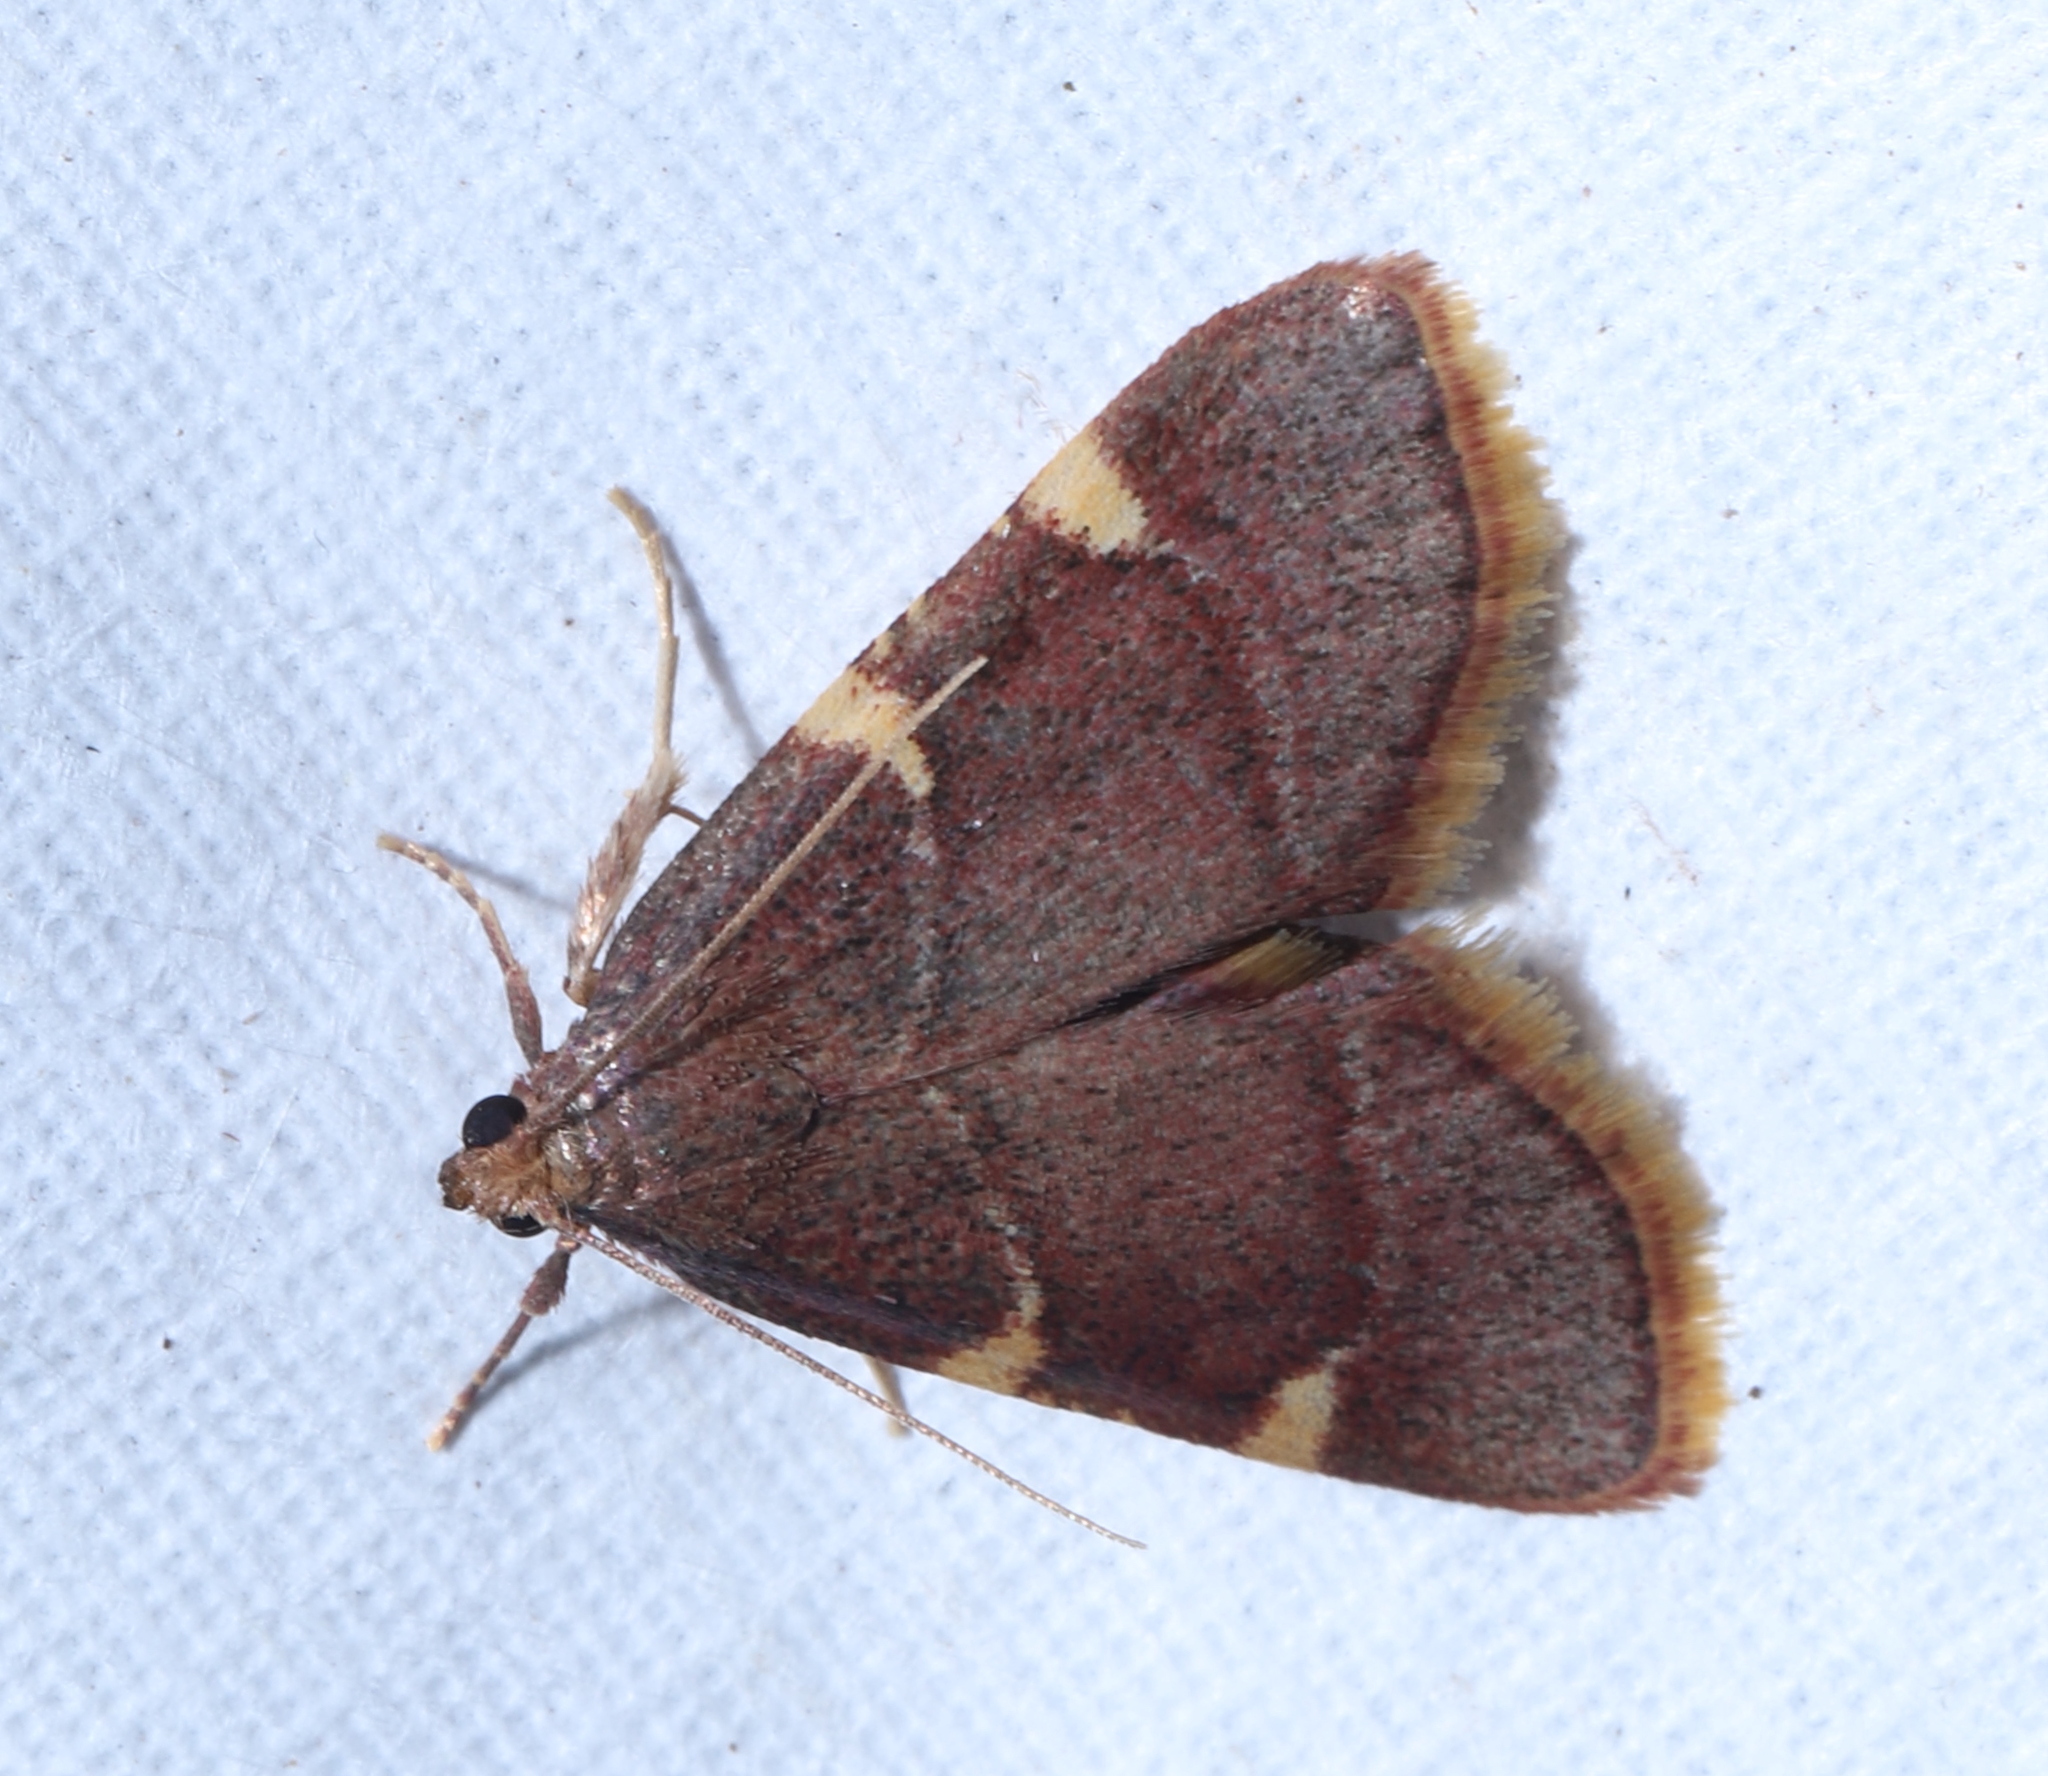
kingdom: Animalia
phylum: Arthropoda
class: Insecta
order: Lepidoptera
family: Pyralidae
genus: Hypsopygia
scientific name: Hypsopygia olinalis
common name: Yellow-fringed dolichomia moth
